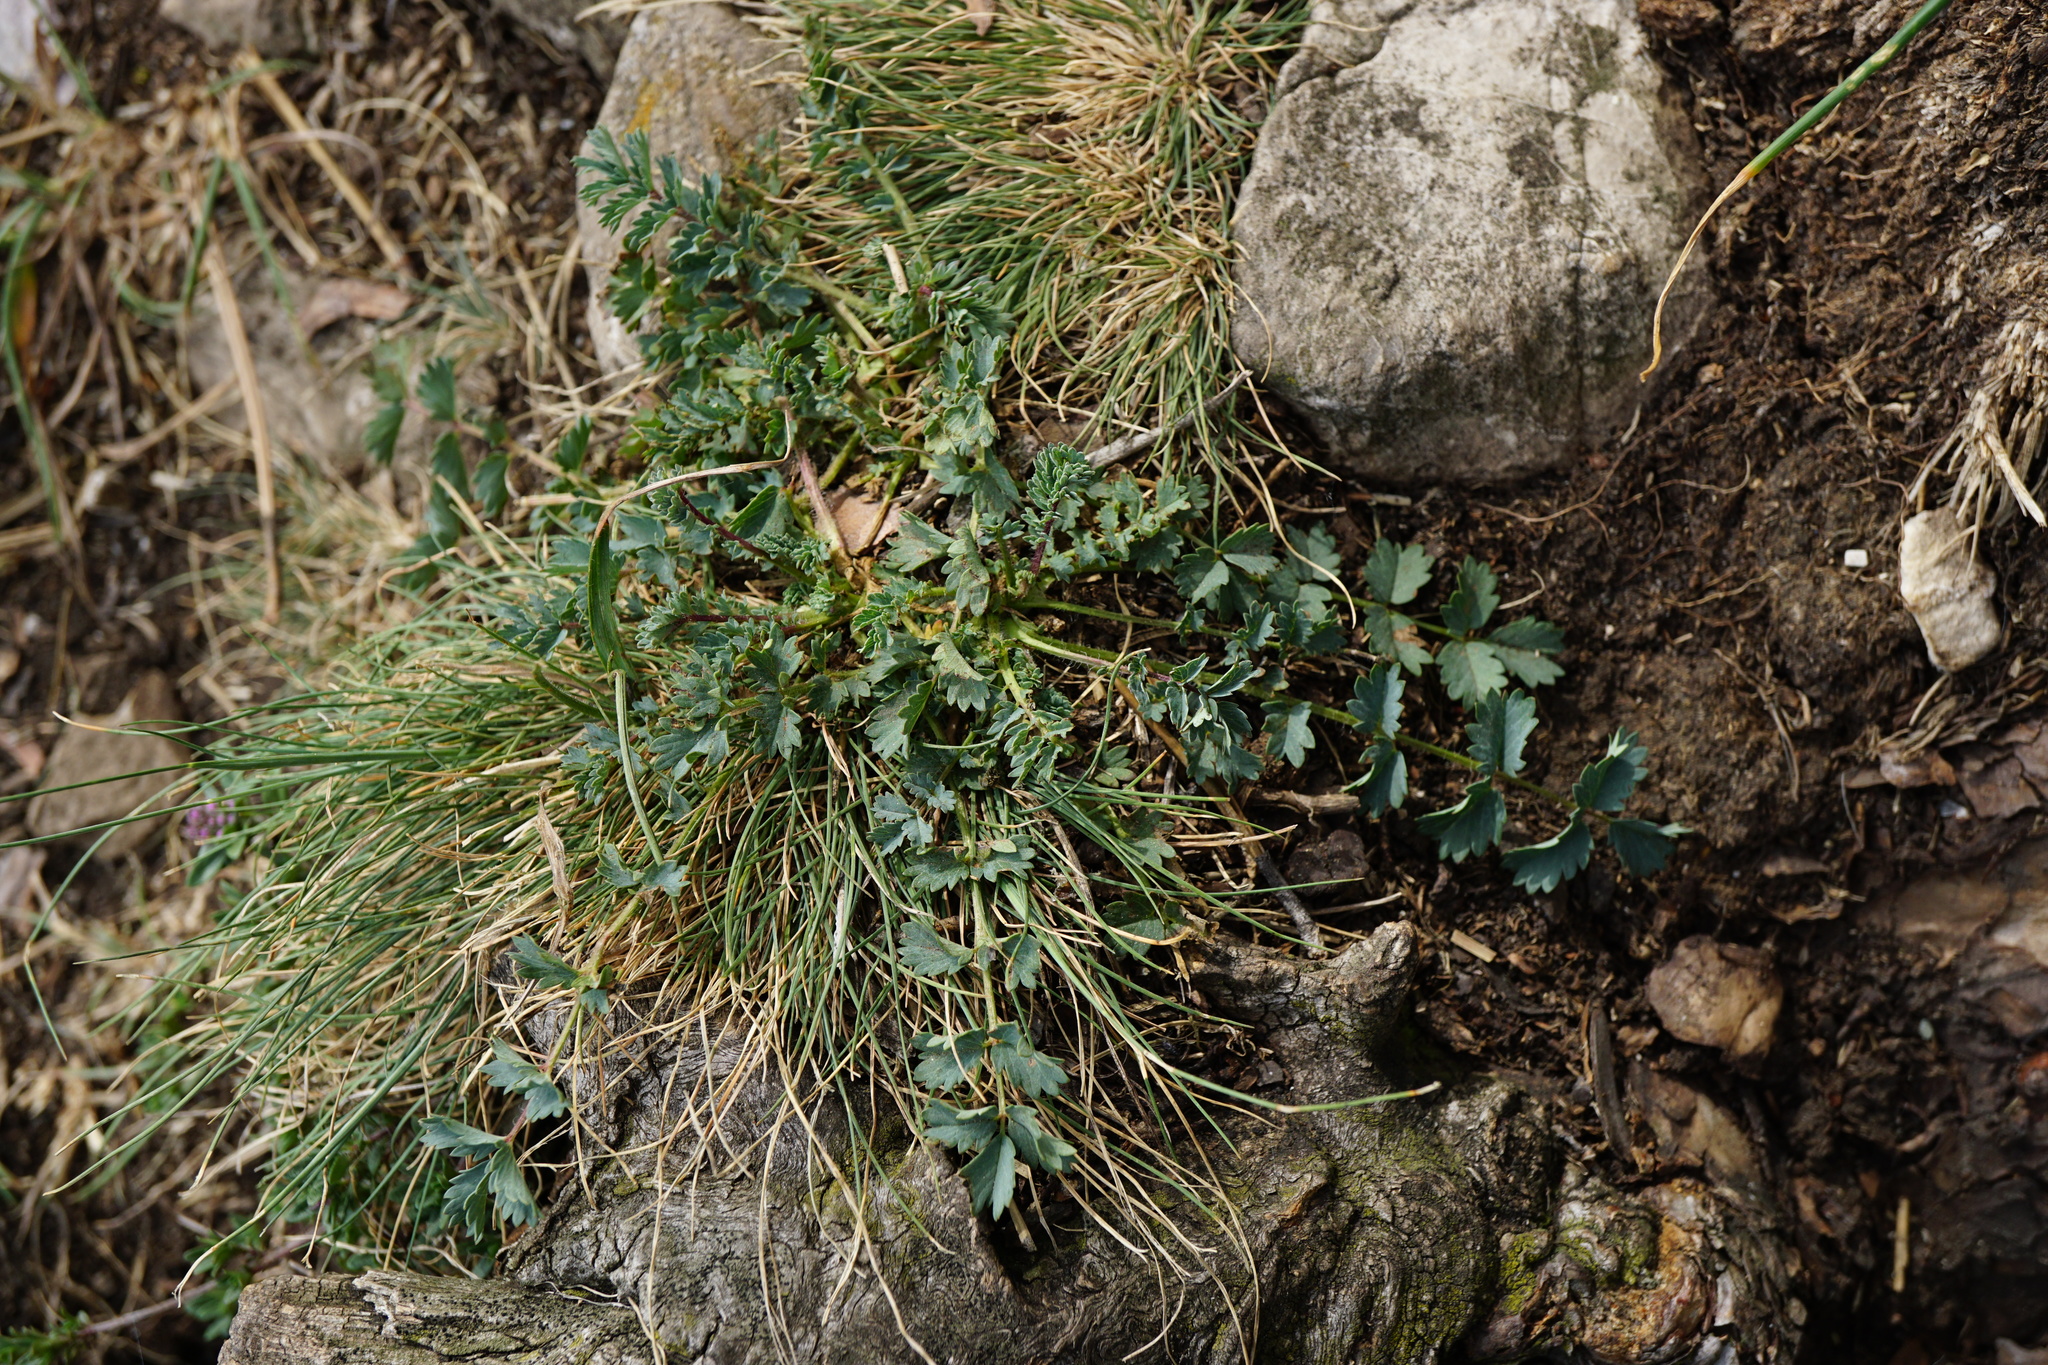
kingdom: Plantae
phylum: Tracheophyta
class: Magnoliopsida
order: Rosales
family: Rosaceae
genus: Poterium
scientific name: Poterium sanguisorba
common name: Salad burnet
